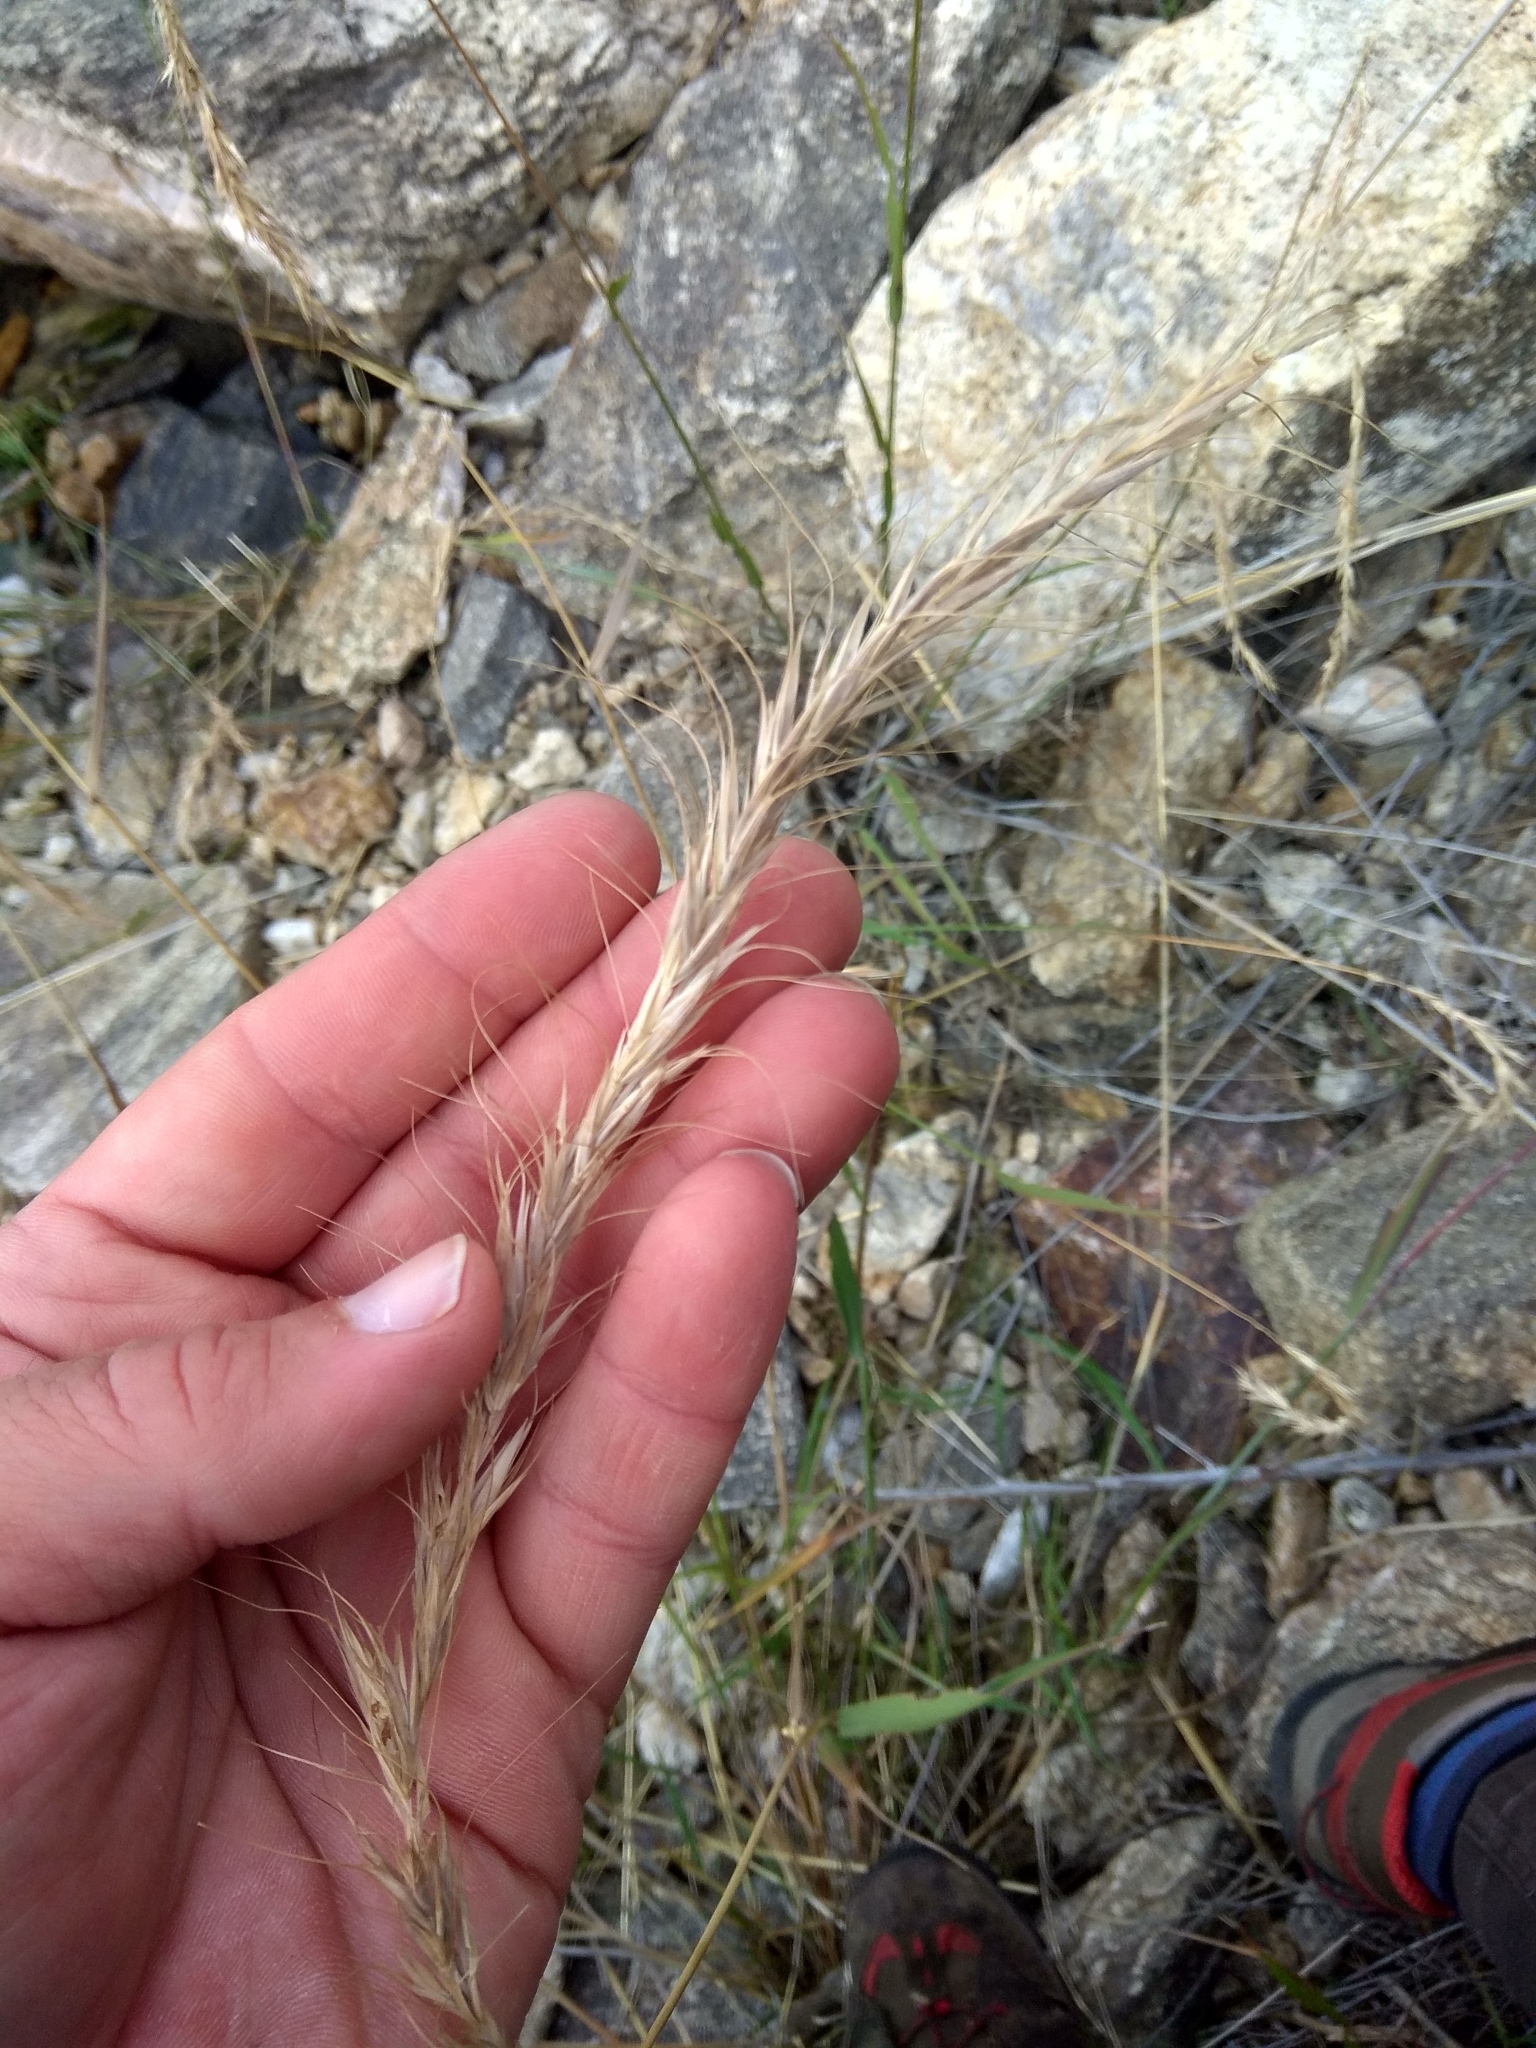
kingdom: Plantae
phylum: Tracheophyta
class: Liliopsida
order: Poales
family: Poaceae
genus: Elymus
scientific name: Elymus sibiricus
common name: Siberian wildrye
